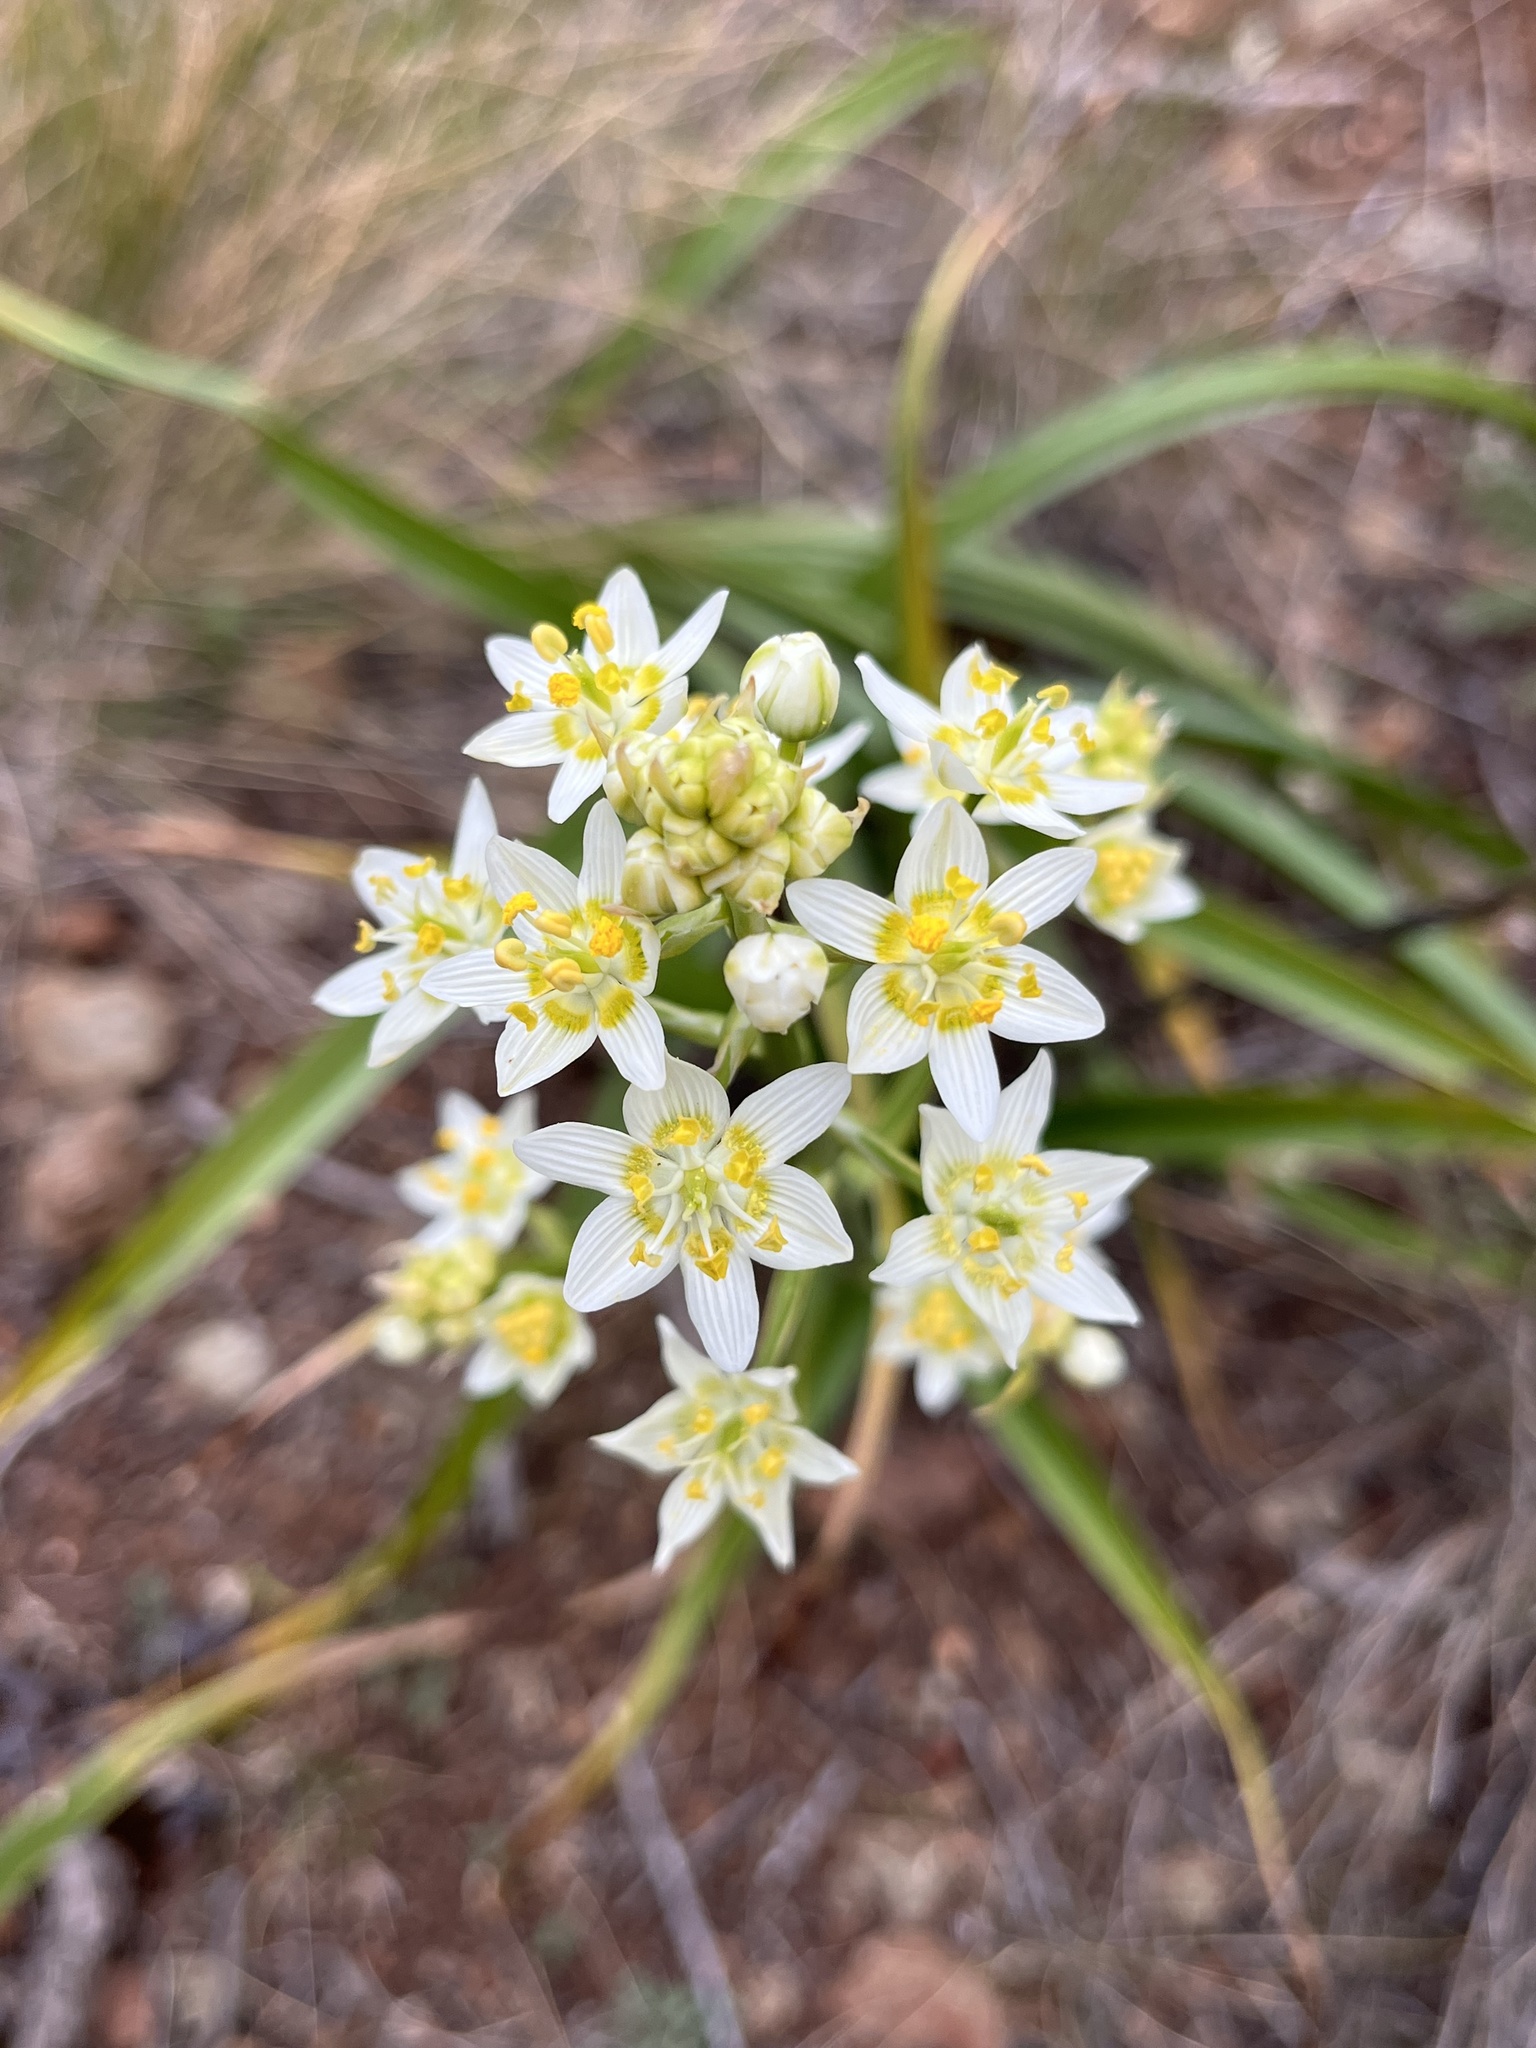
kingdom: Plantae
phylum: Tracheophyta
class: Liliopsida
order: Liliales
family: Melanthiaceae
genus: Toxicoscordion
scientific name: Toxicoscordion fremontii
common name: Fremont's death camas
